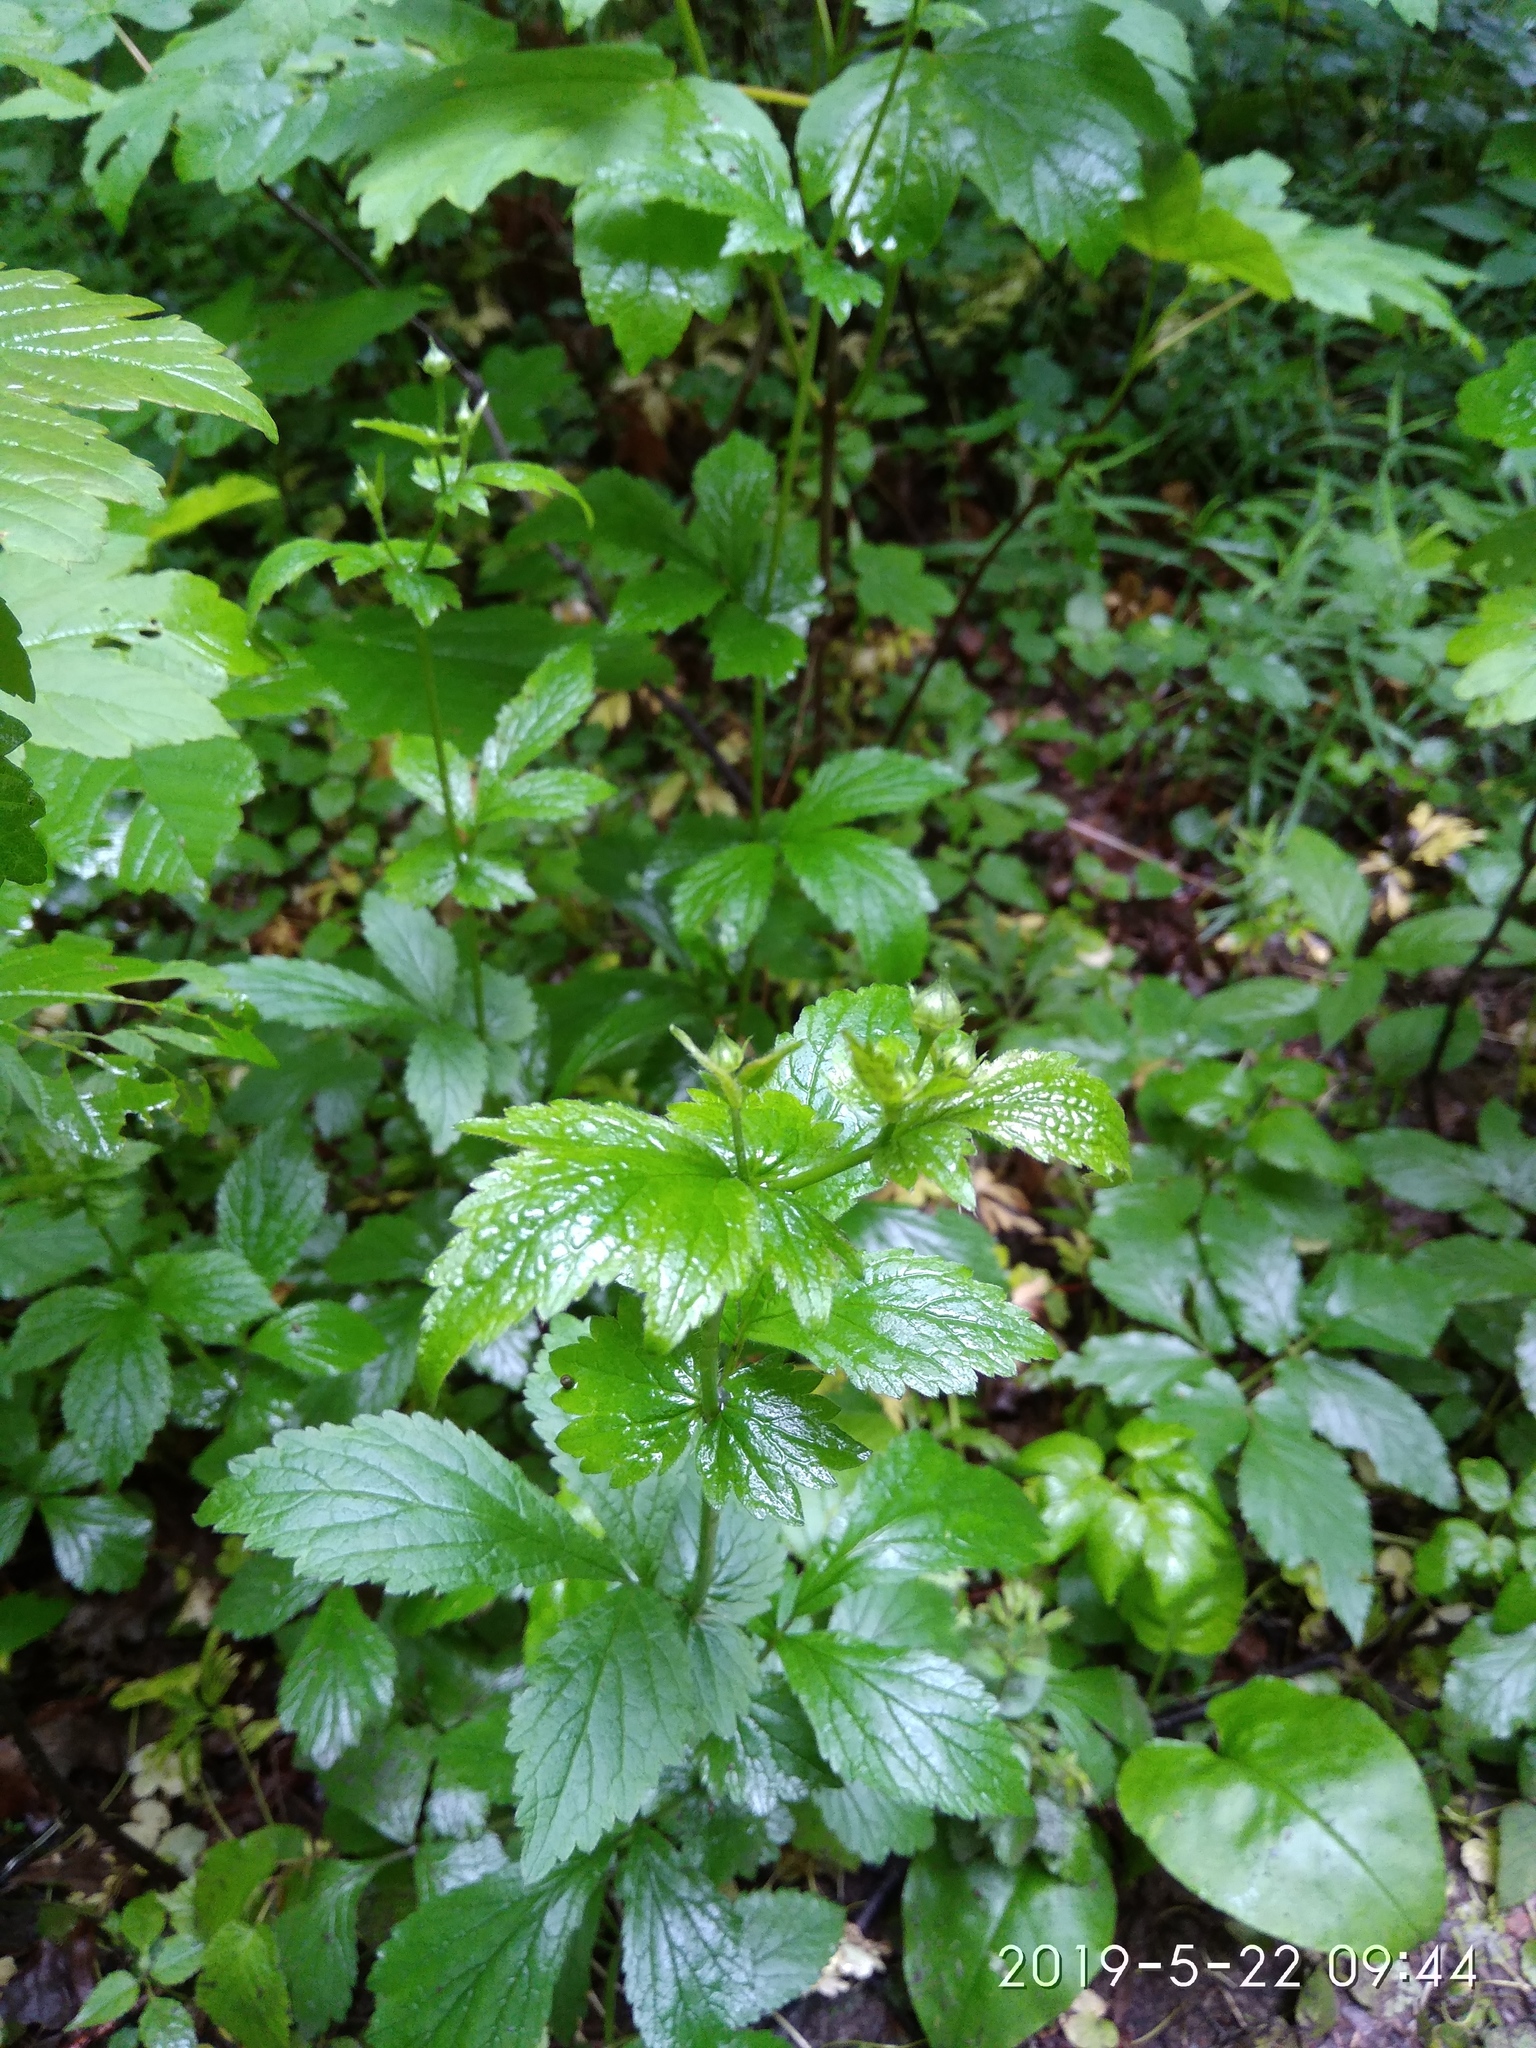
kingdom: Plantae
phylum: Tracheophyta
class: Magnoliopsida
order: Rosales
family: Rosaceae
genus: Geum
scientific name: Geum urbanum
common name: Wood avens
